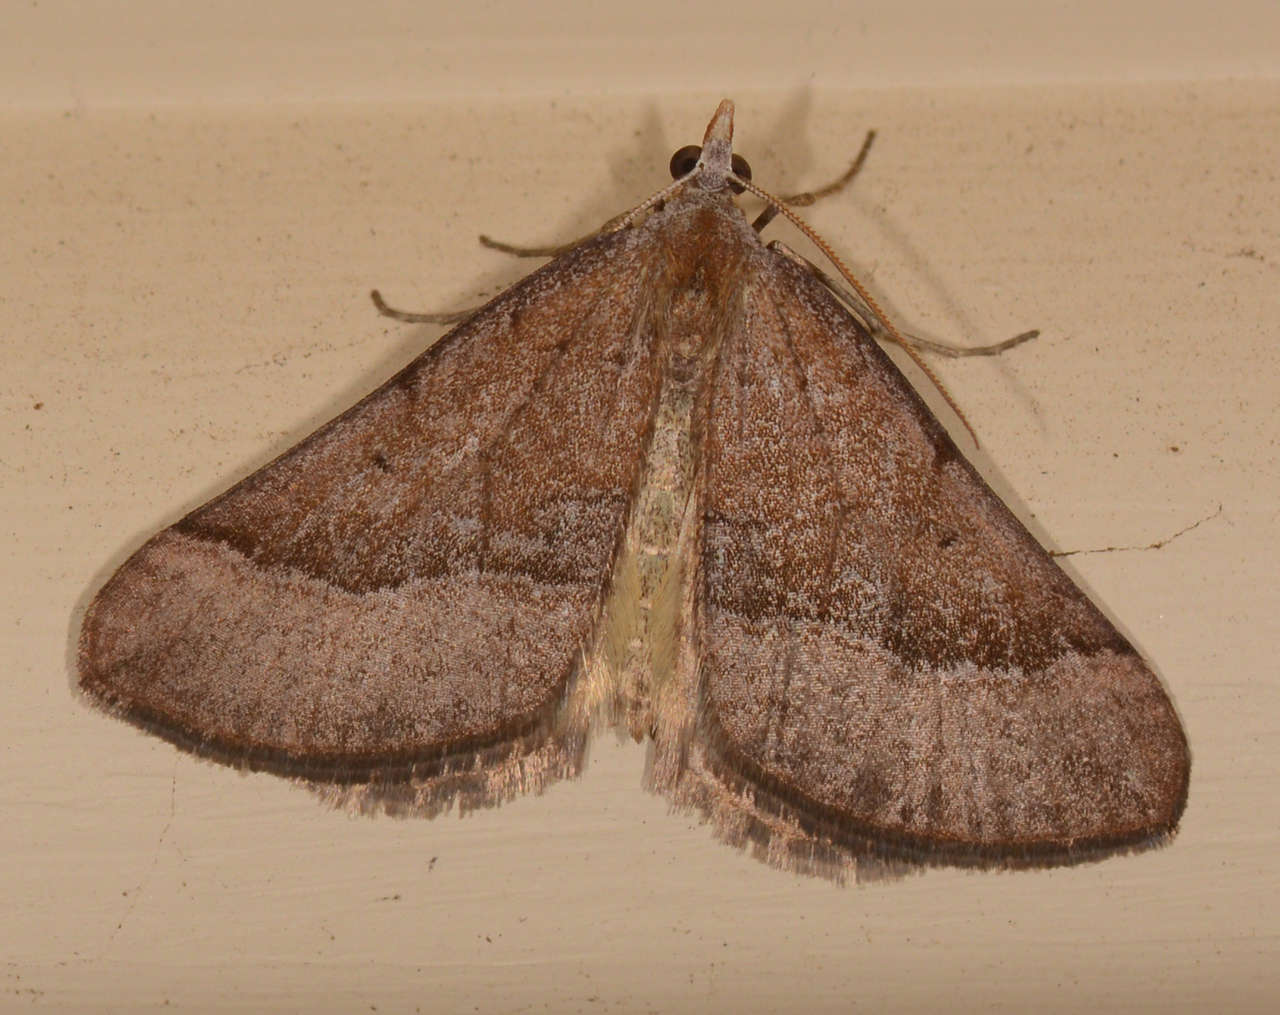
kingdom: Animalia
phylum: Arthropoda
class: Insecta
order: Lepidoptera
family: Geometridae
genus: Anachloris
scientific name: Anachloris subochraria
